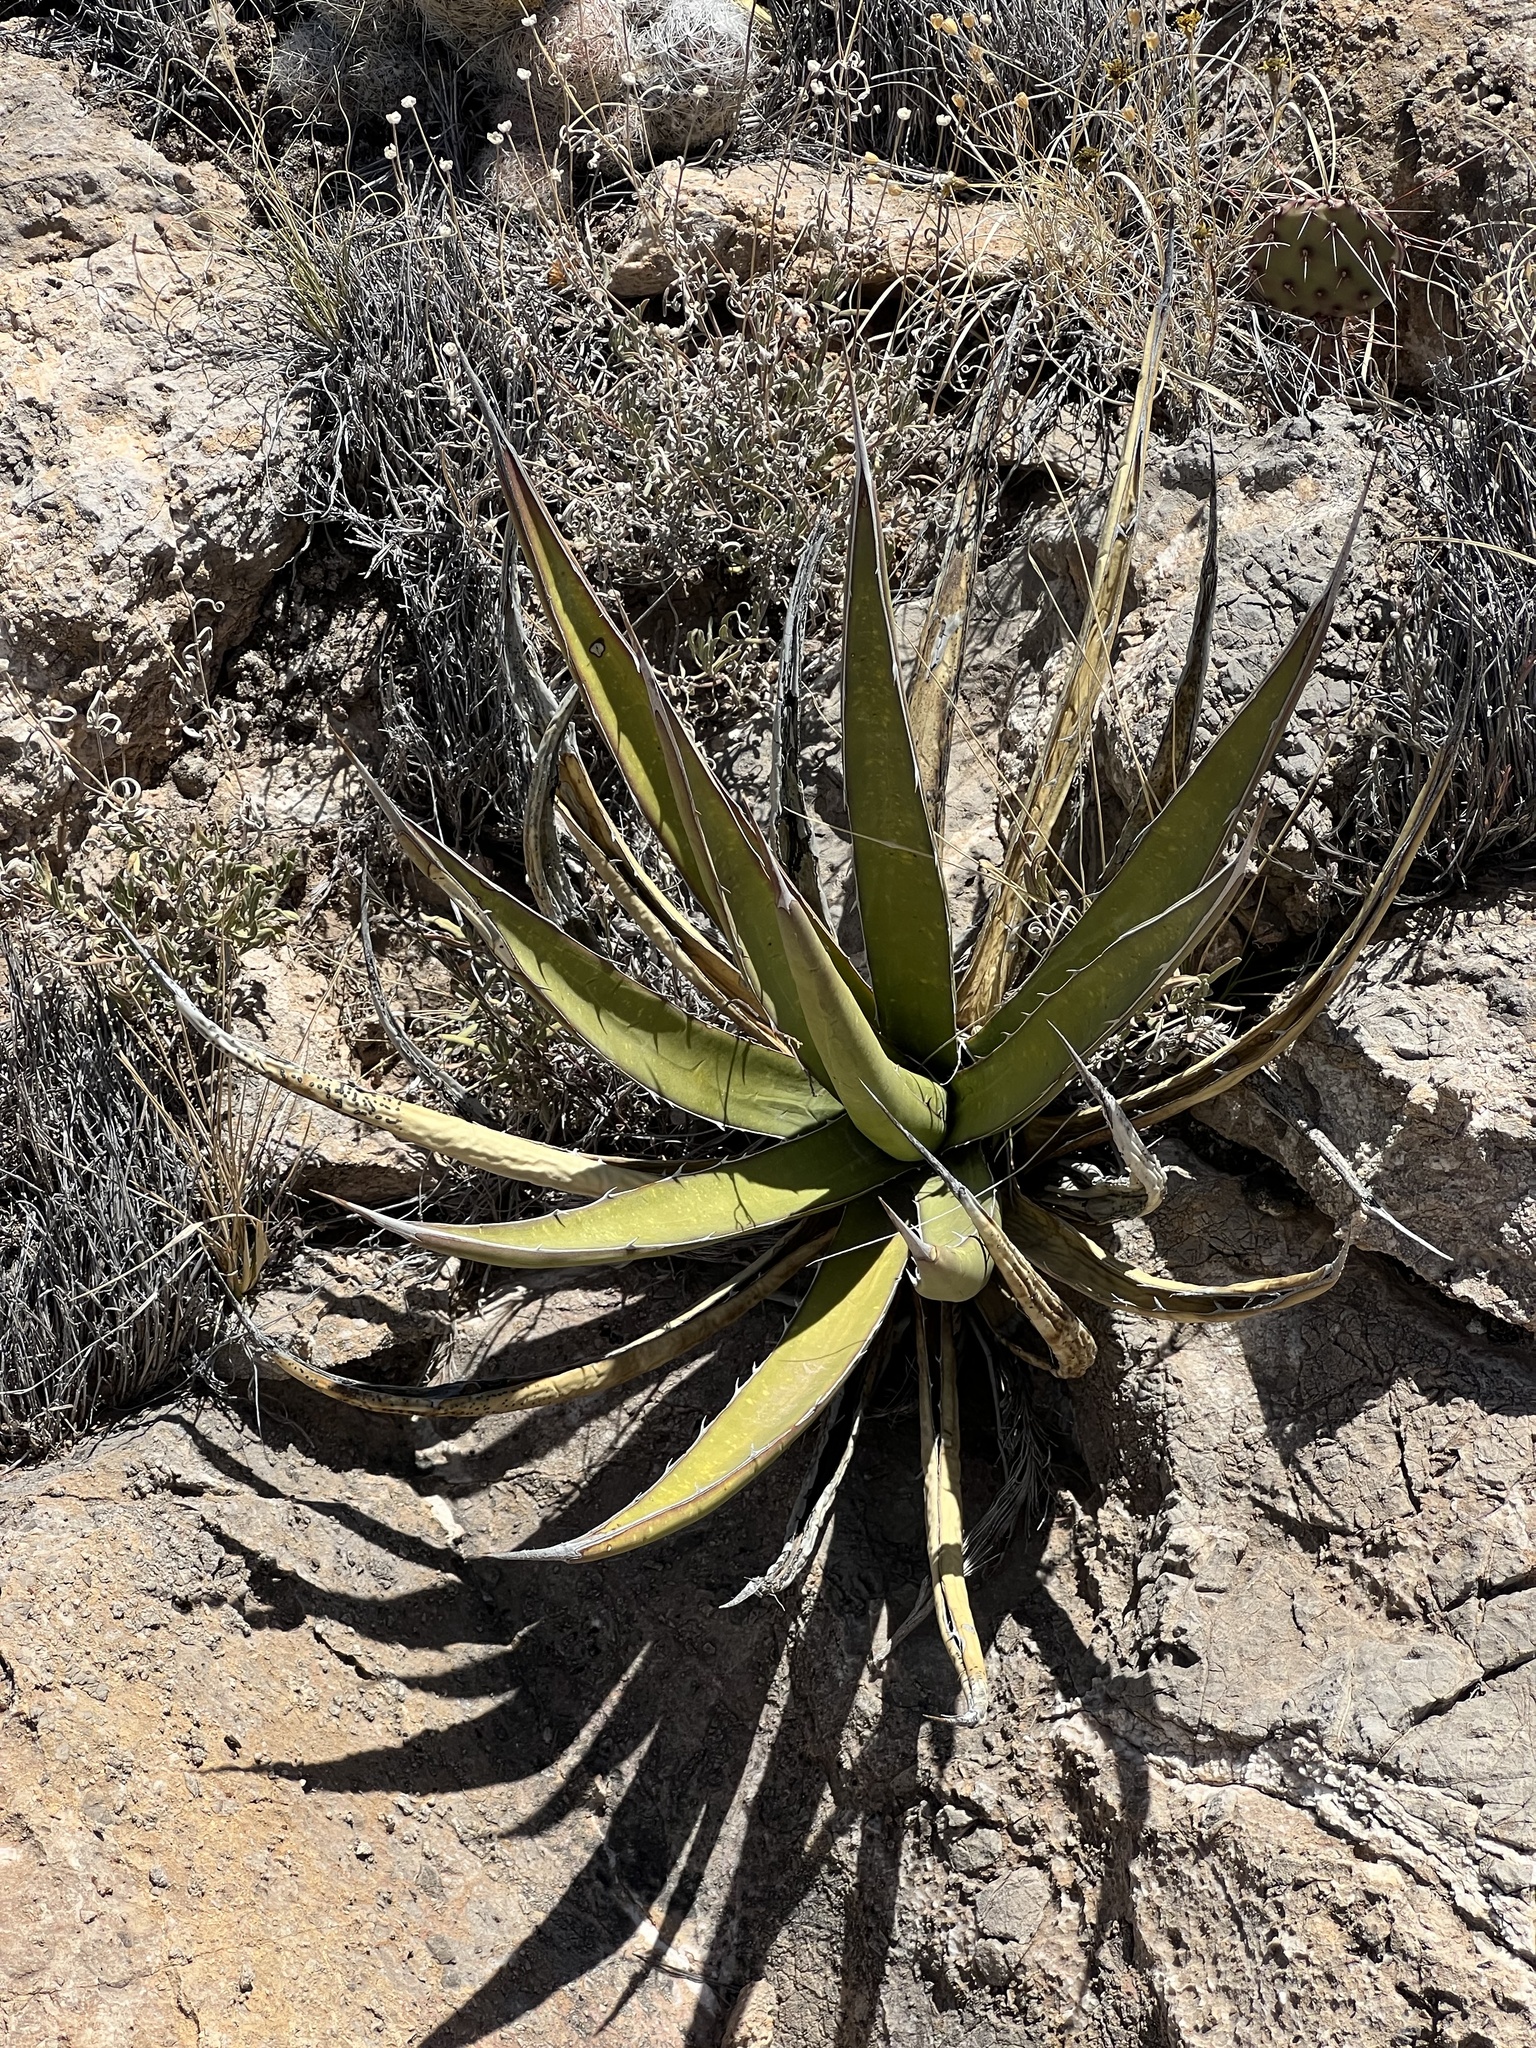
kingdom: Plantae
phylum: Tracheophyta
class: Liliopsida
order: Asparagales
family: Asparagaceae
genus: Agave
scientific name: Agave lechuguilla
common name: Lecheguilla agave
